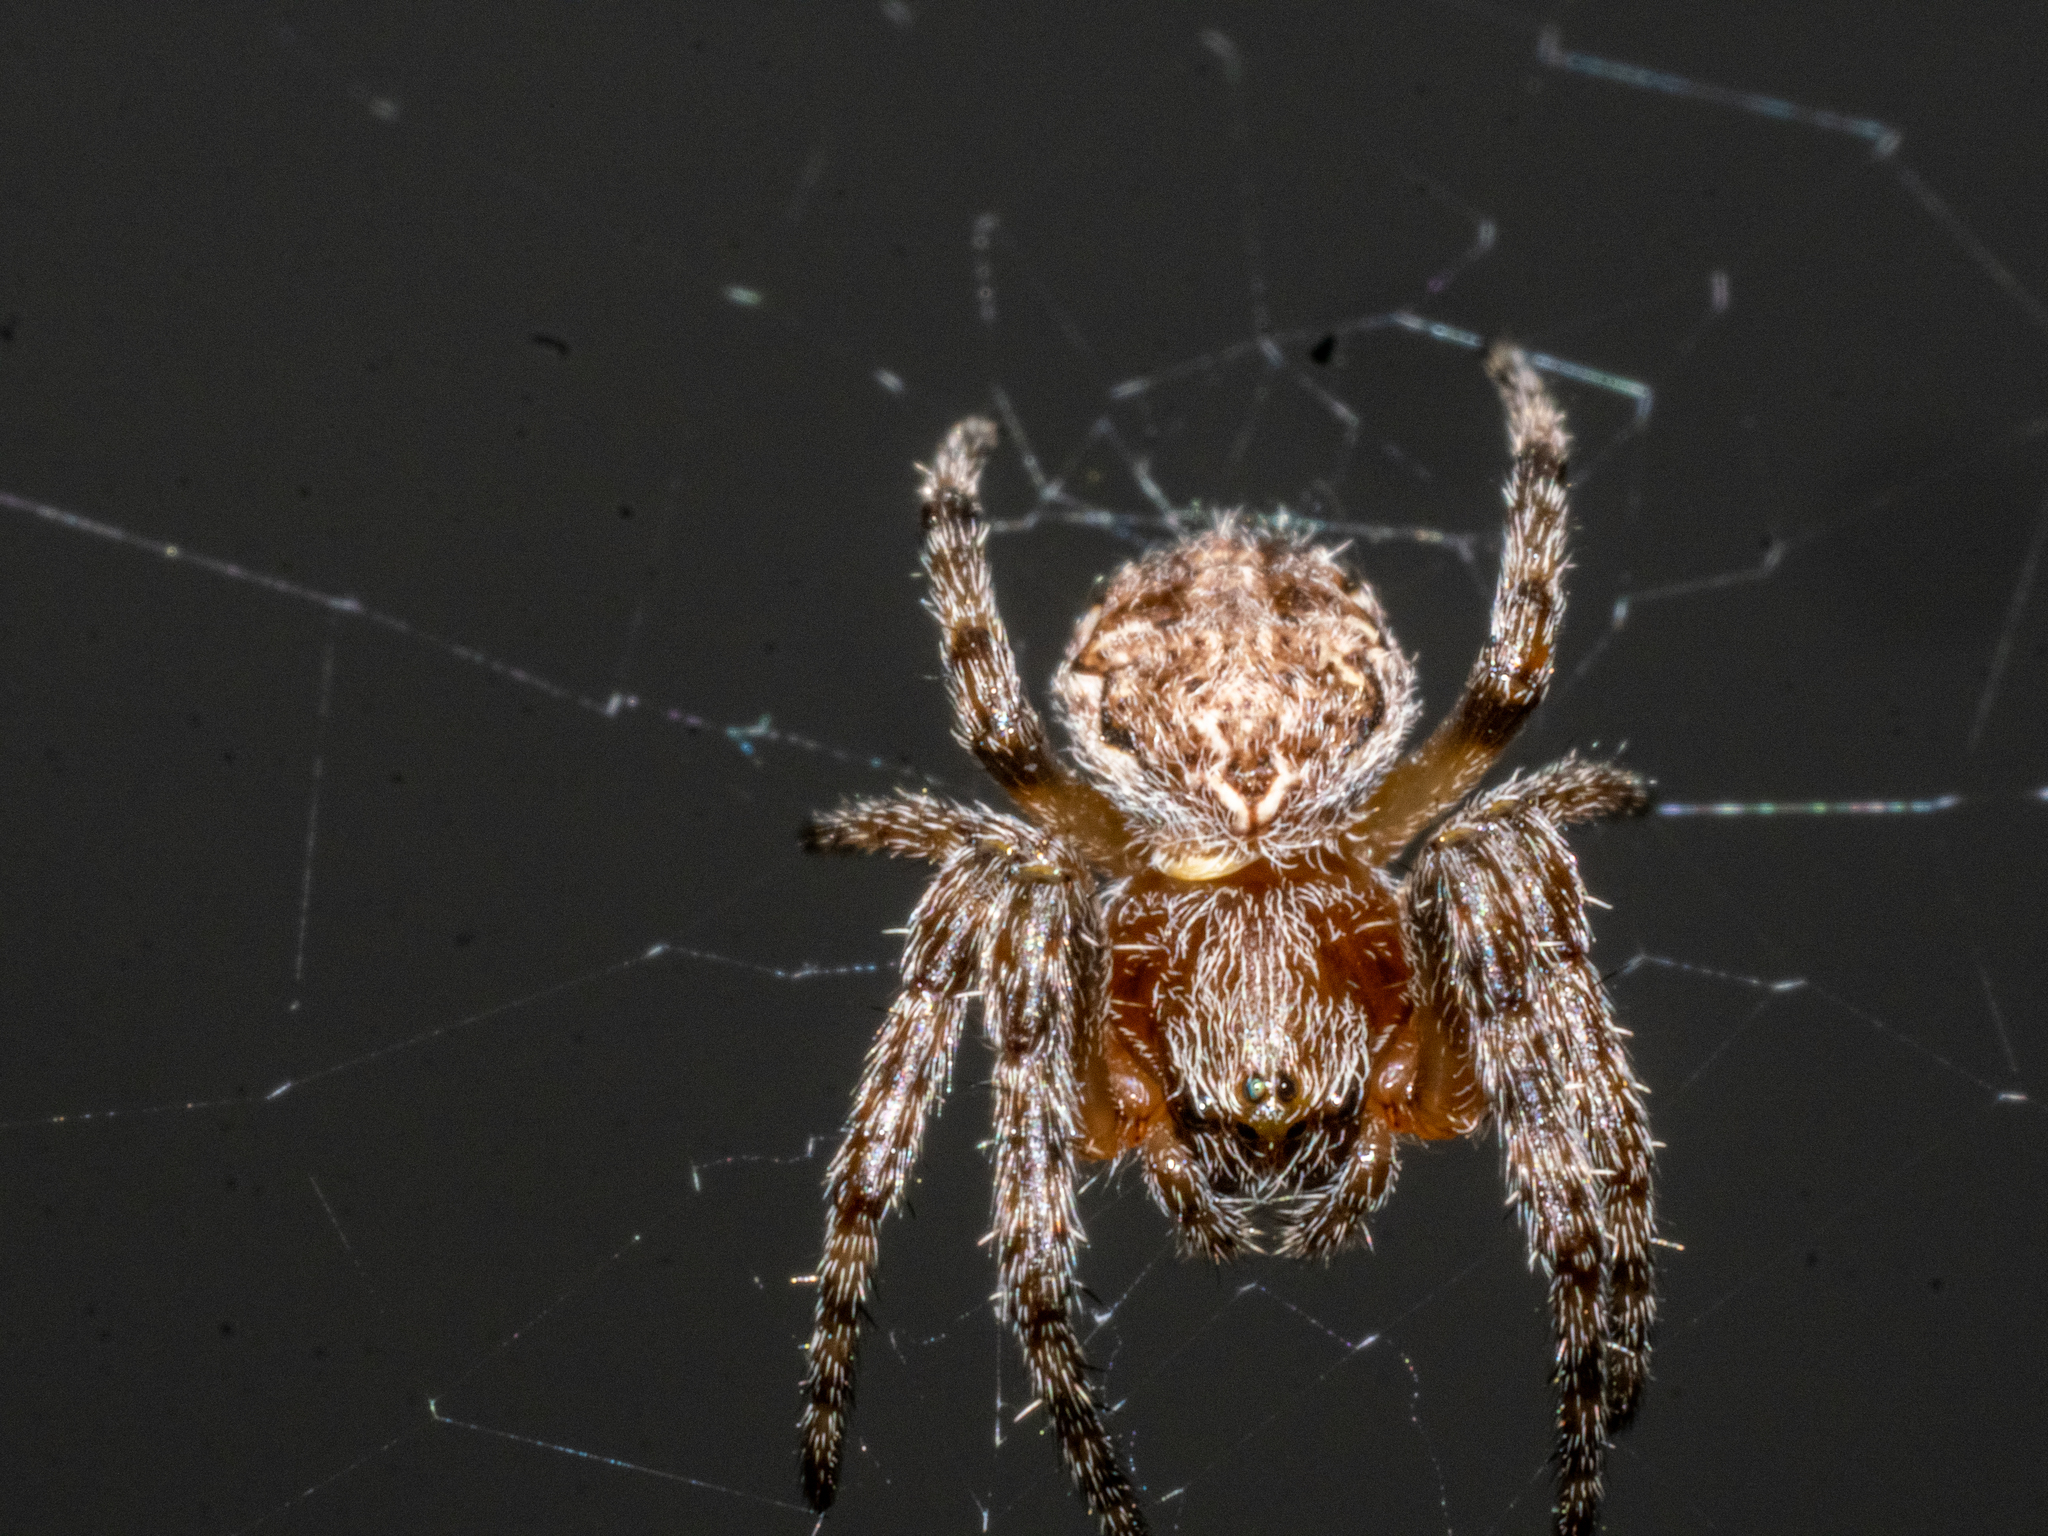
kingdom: Animalia
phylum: Arthropoda
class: Arachnida
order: Araneae
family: Araneidae
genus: Larinioides
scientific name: Larinioides cornutus
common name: Furrow orbweaver
